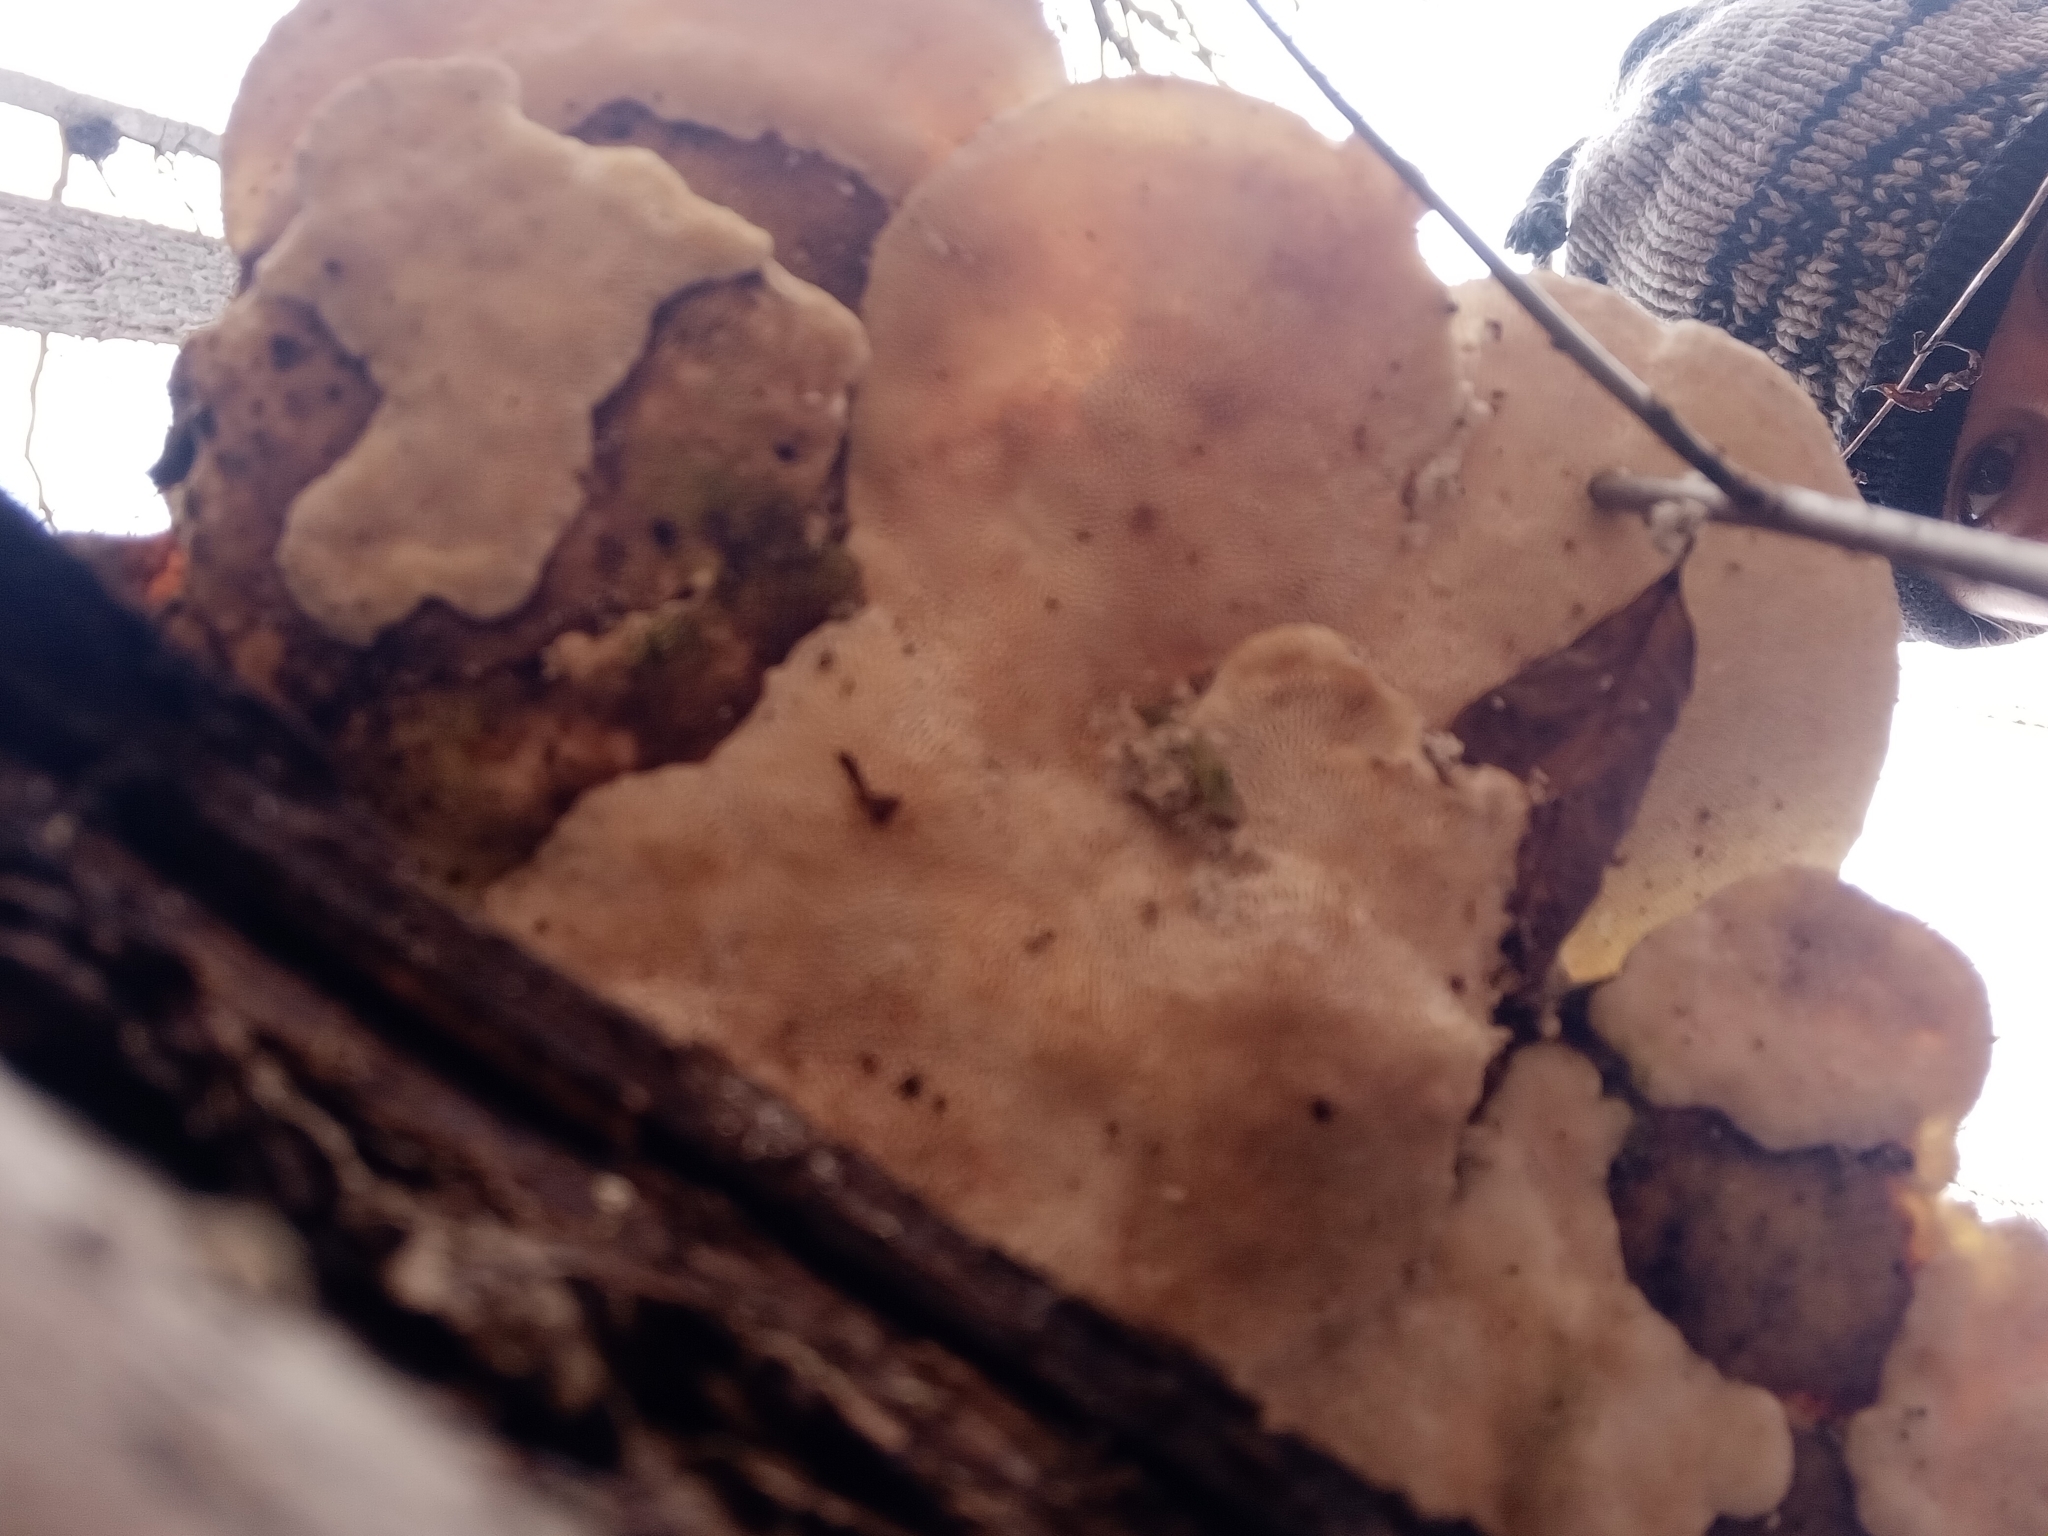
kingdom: Fungi
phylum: Basidiomycota
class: Agaricomycetes
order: Polyporales
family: Polyporaceae
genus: Trametes
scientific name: Trametes gibbosa
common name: Lumpy bracket
